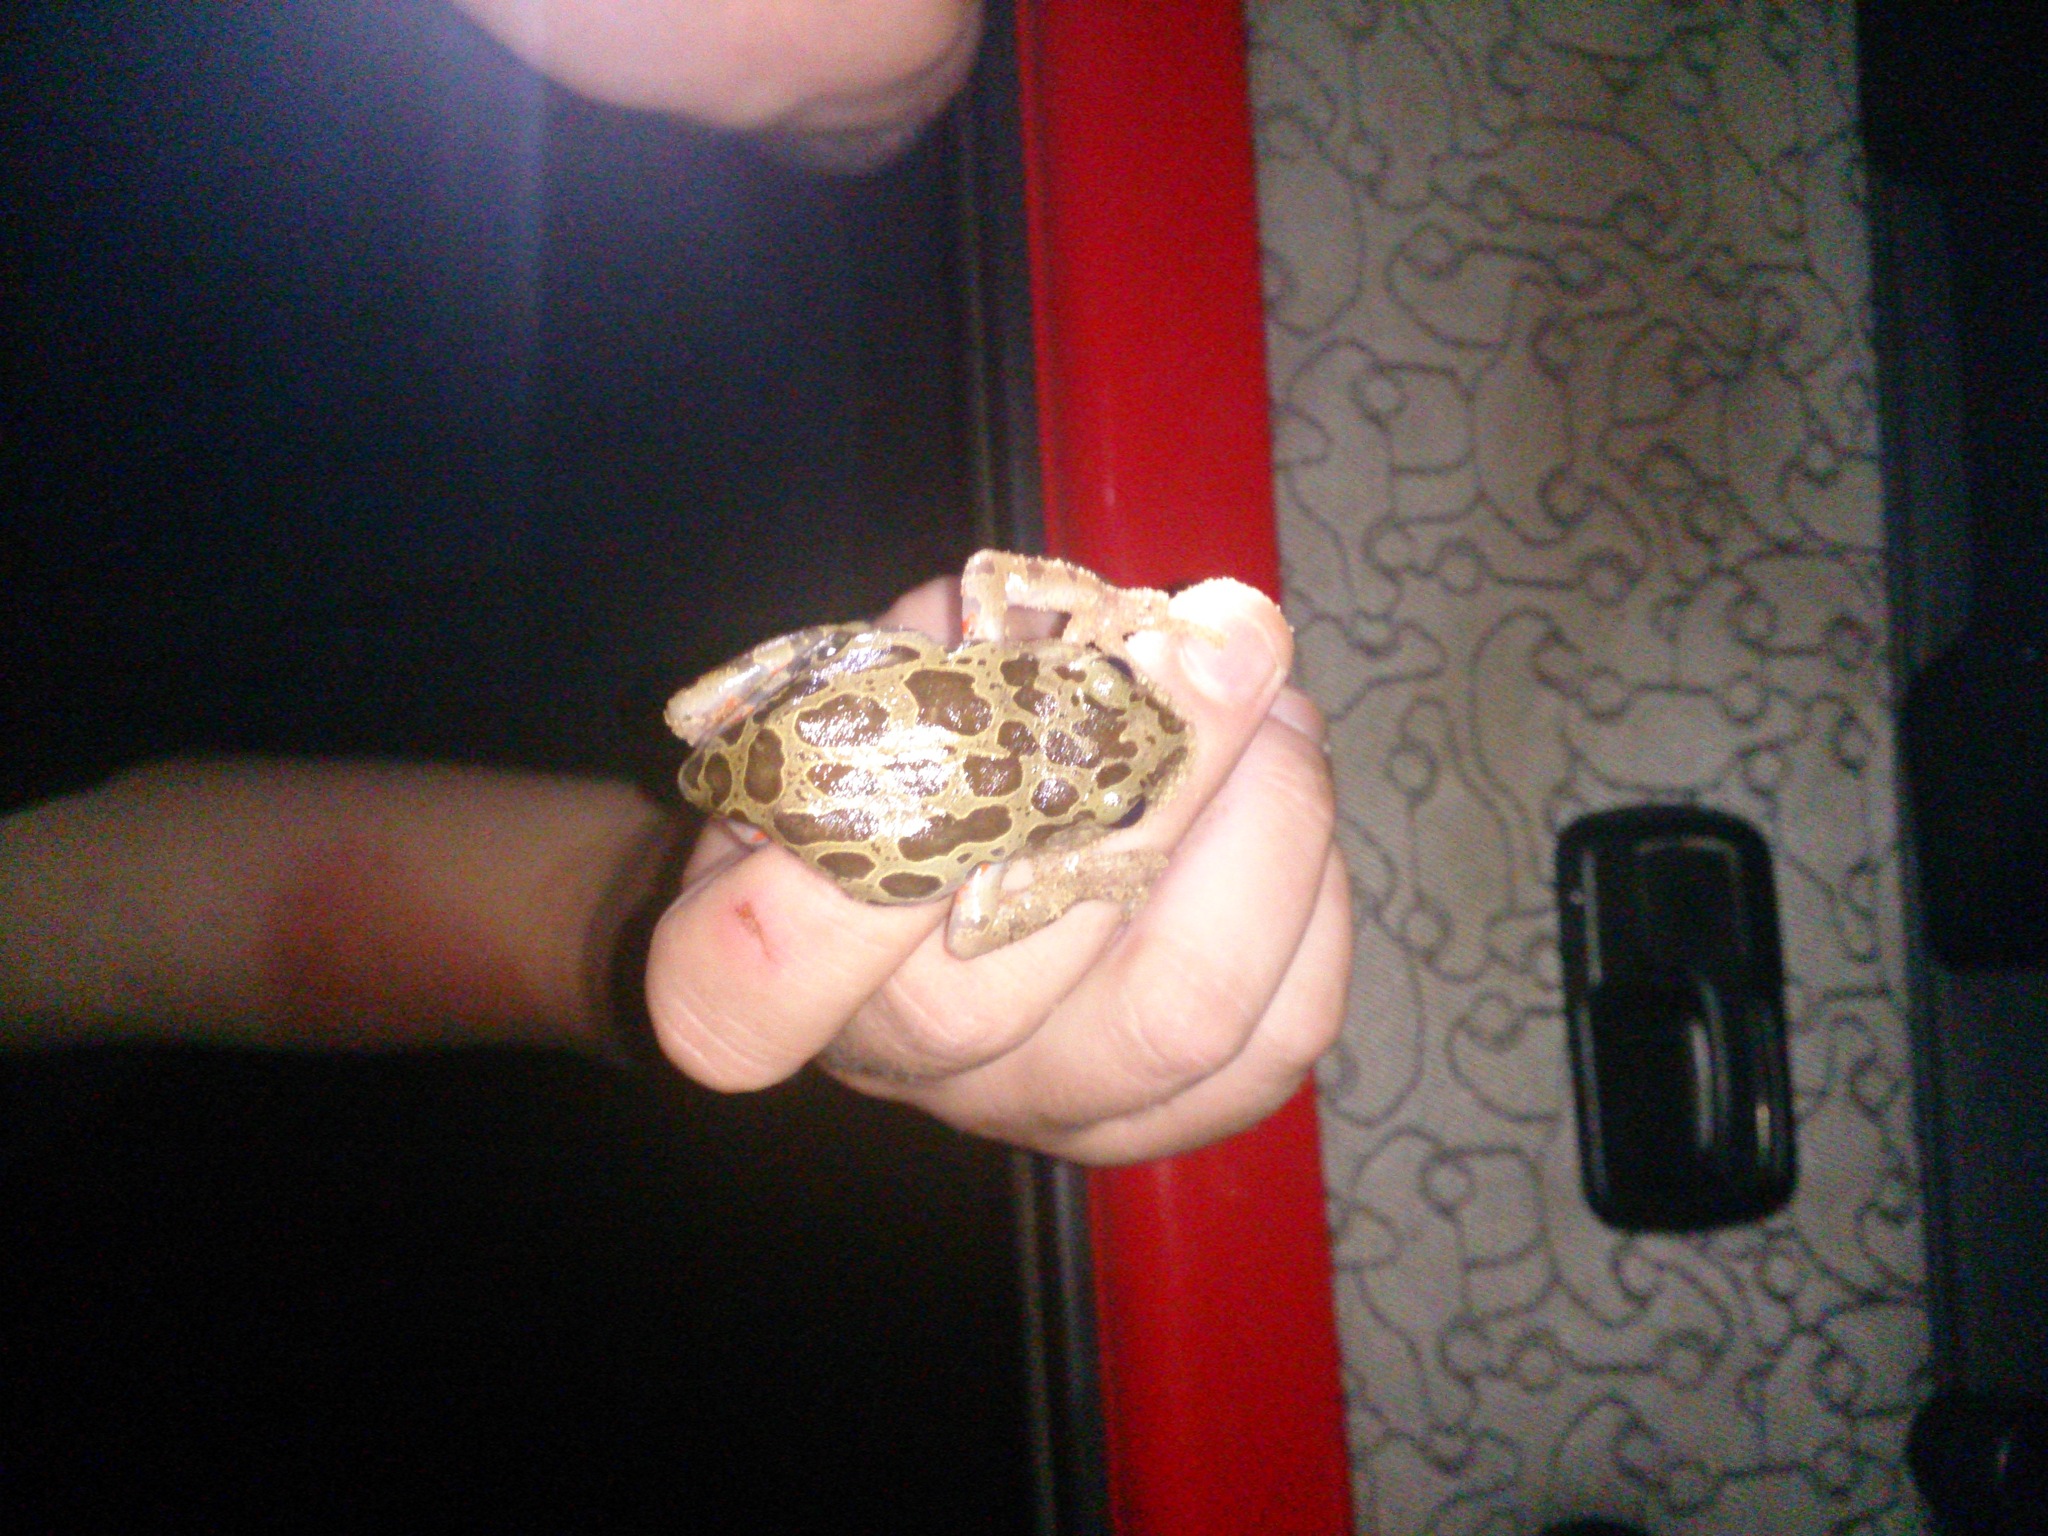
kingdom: Animalia
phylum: Chordata
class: Amphibia
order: Anura
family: Hyperoliidae
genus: Phlyctimantis
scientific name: Phlyctimantis maculatus
